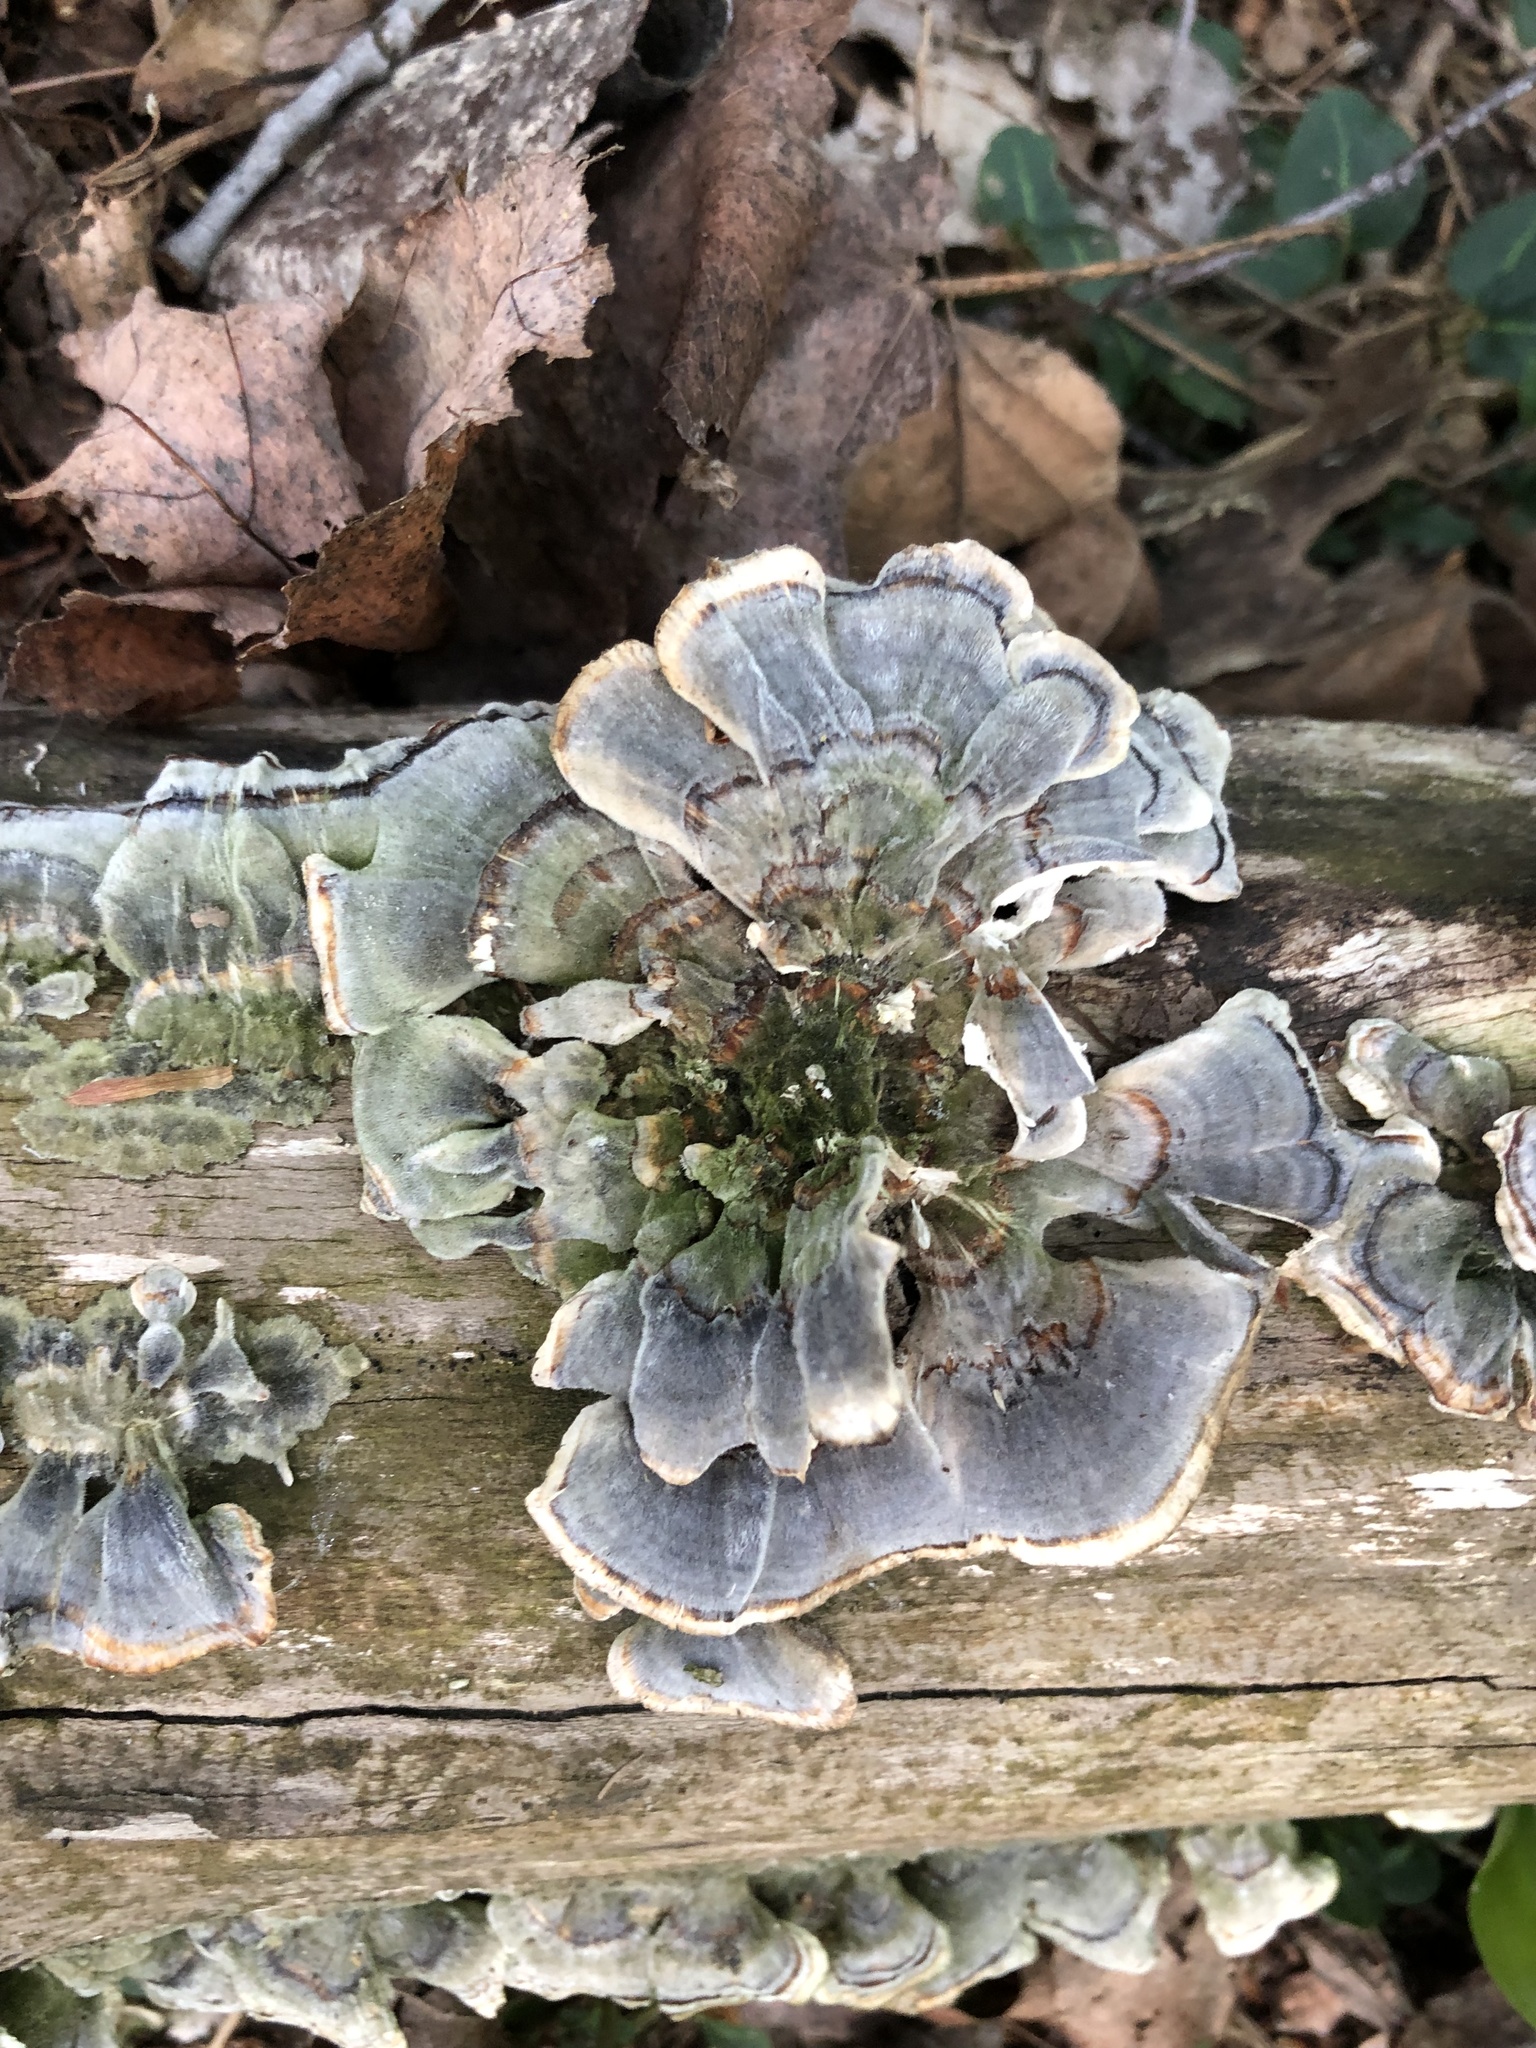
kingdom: Fungi
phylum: Basidiomycota
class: Agaricomycetes
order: Polyporales
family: Polyporaceae
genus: Trametes
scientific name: Trametes versicolor
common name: Turkeytail
